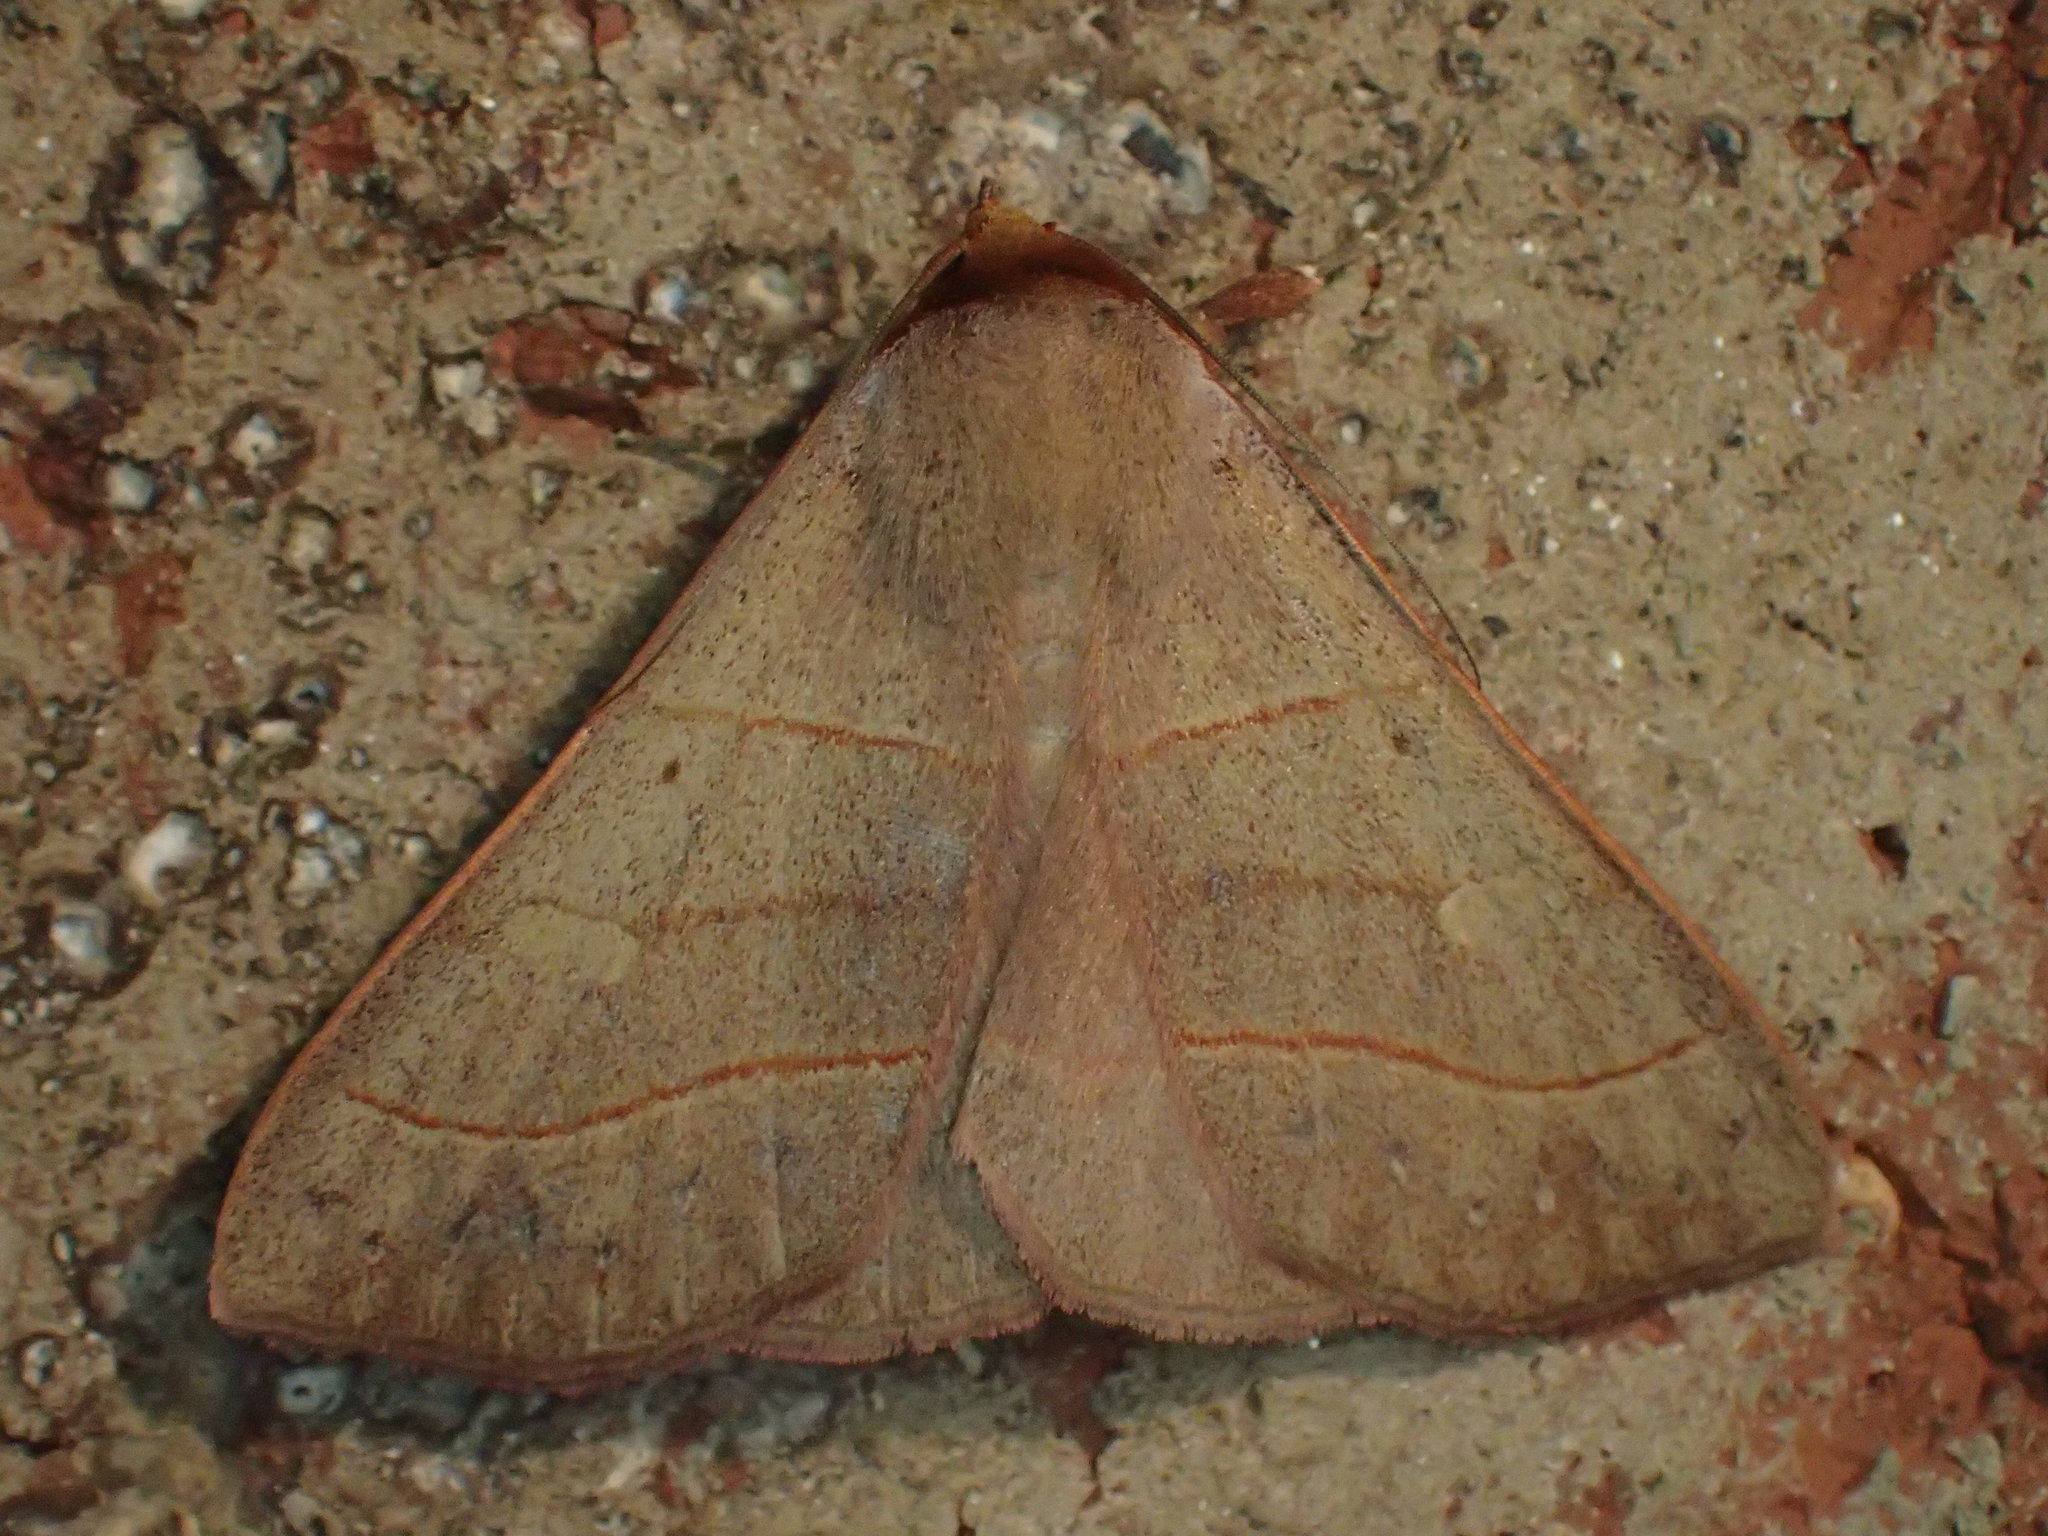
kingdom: Animalia
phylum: Arthropoda
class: Insecta
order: Lepidoptera
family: Erebidae
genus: Panopoda
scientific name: Panopoda rufimargo
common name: Red-lined panopoda moth
